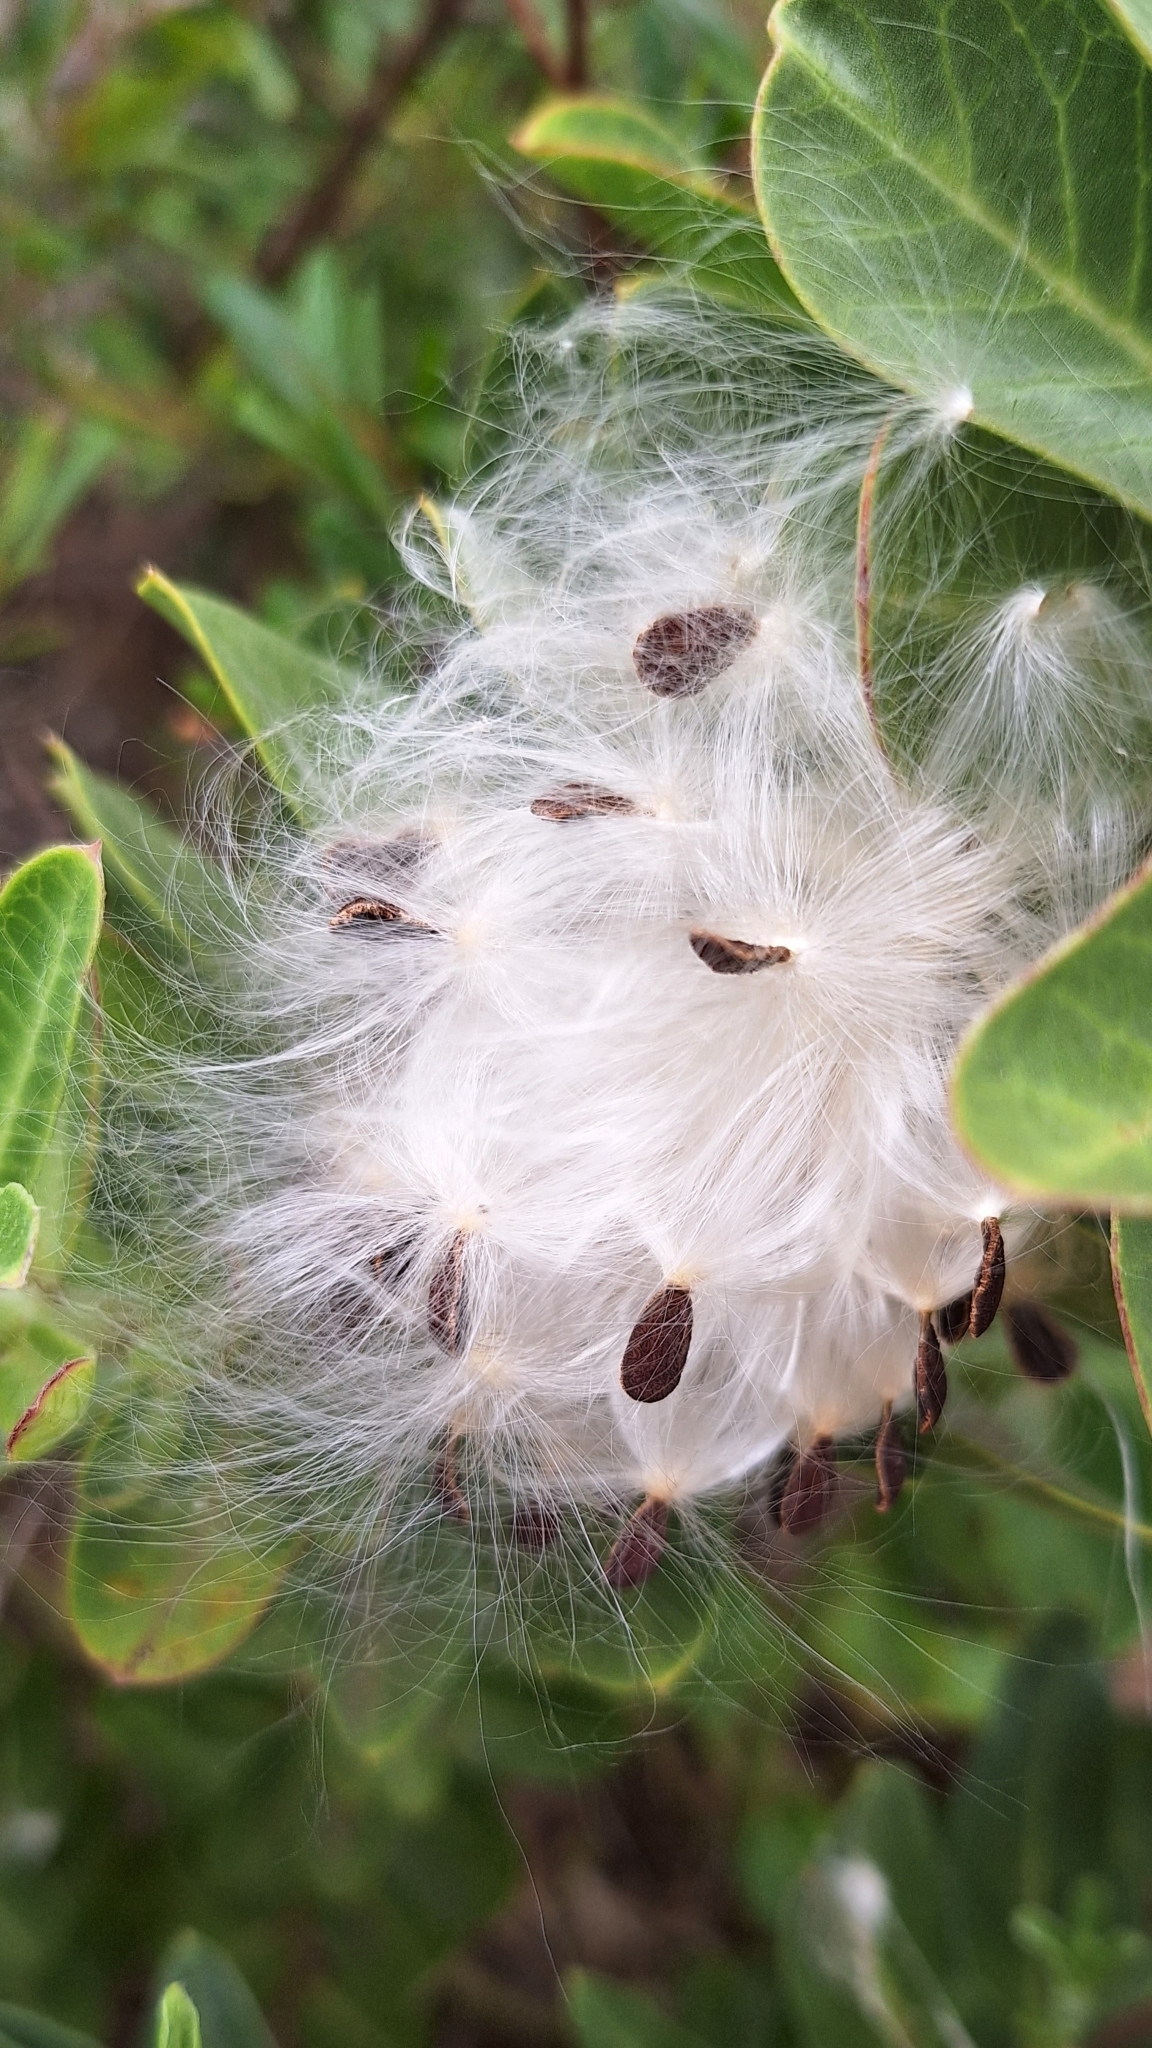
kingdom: Plantae
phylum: Tracheophyta
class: Magnoliopsida
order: Gentianales
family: Apocynaceae
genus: Gomphocarpus
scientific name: Gomphocarpus cancellatus
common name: Wild cotton
